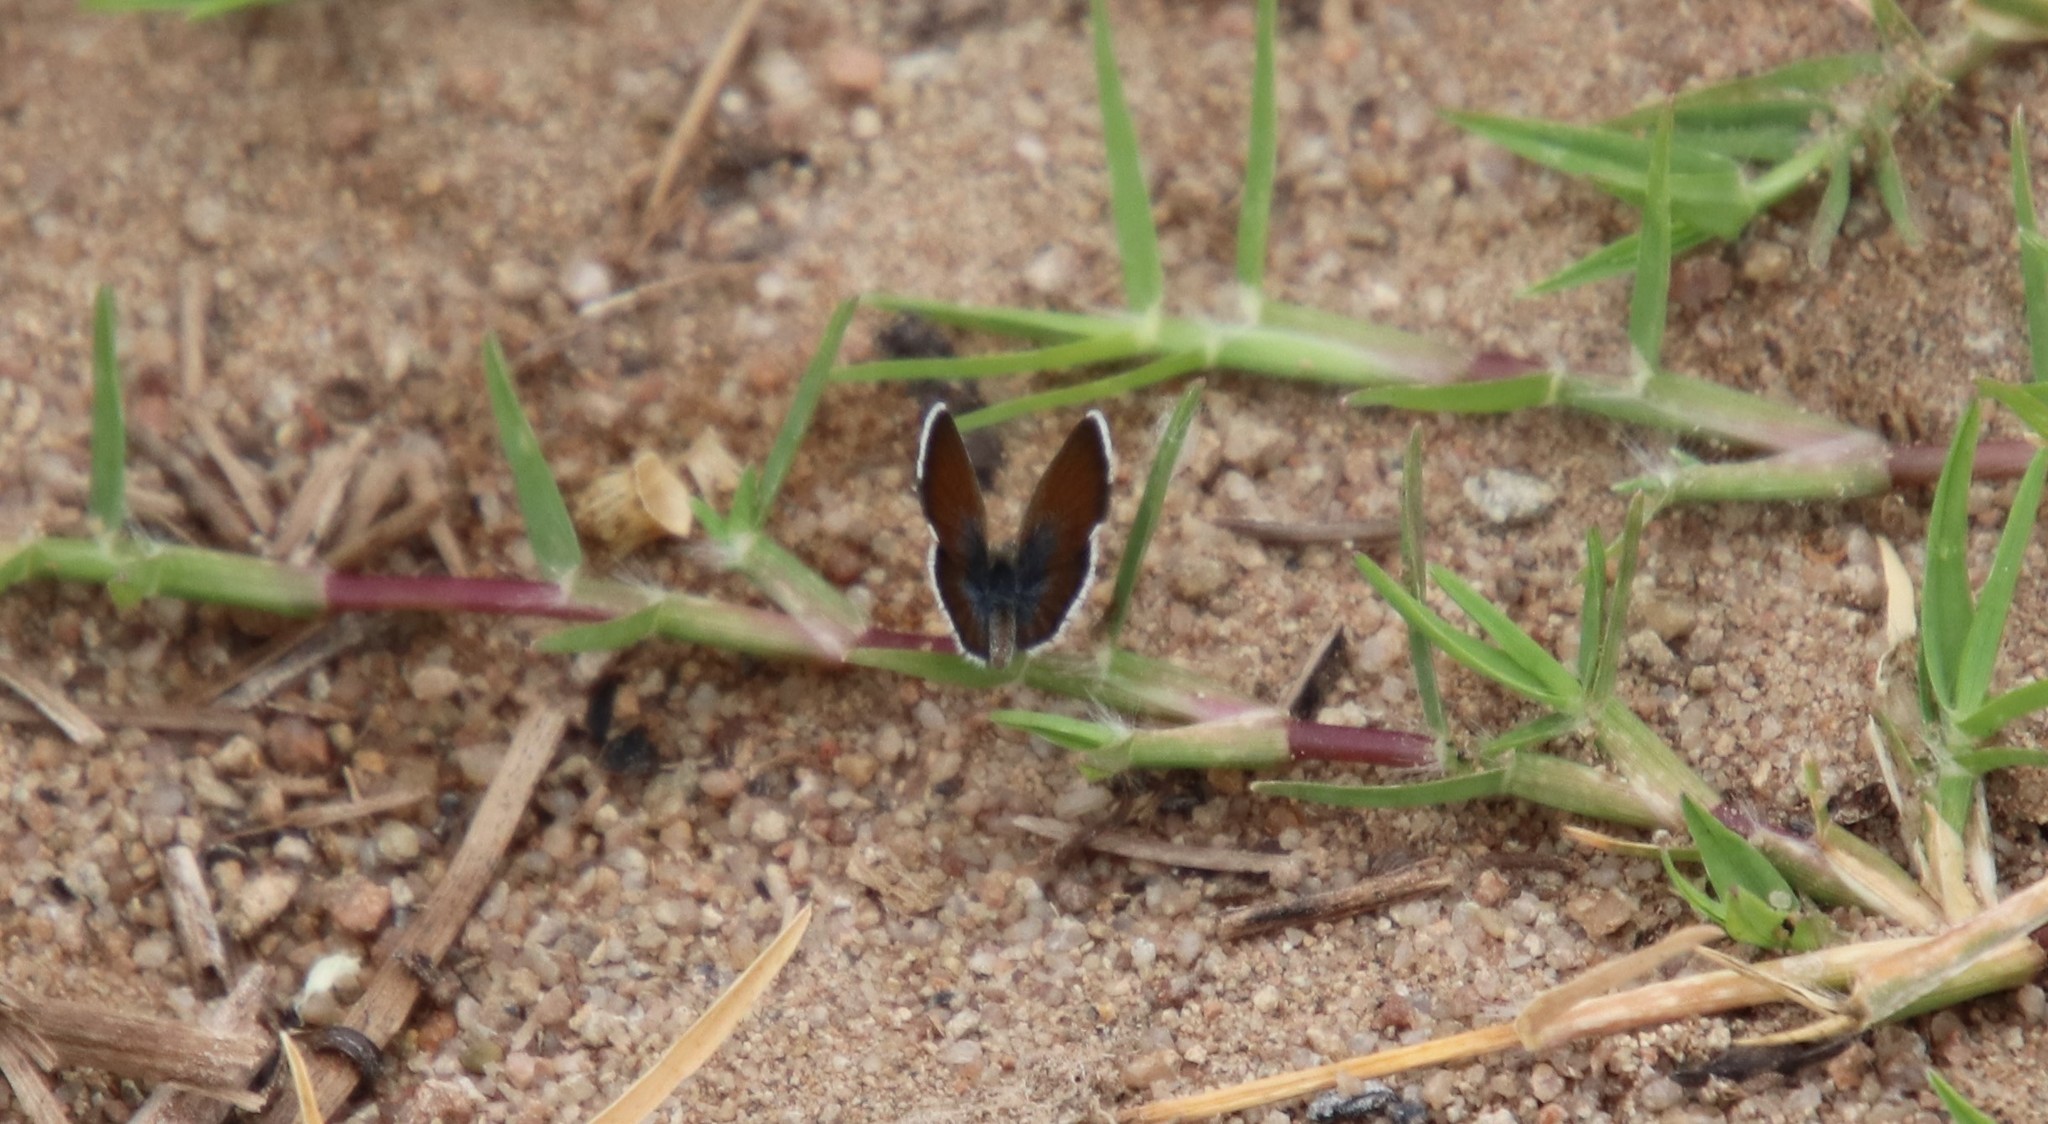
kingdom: Animalia
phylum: Arthropoda
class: Insecta
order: Lepidoptera
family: Lycaenidae
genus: Brephidium
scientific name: Brephidium exilis
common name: Pygmy blue
